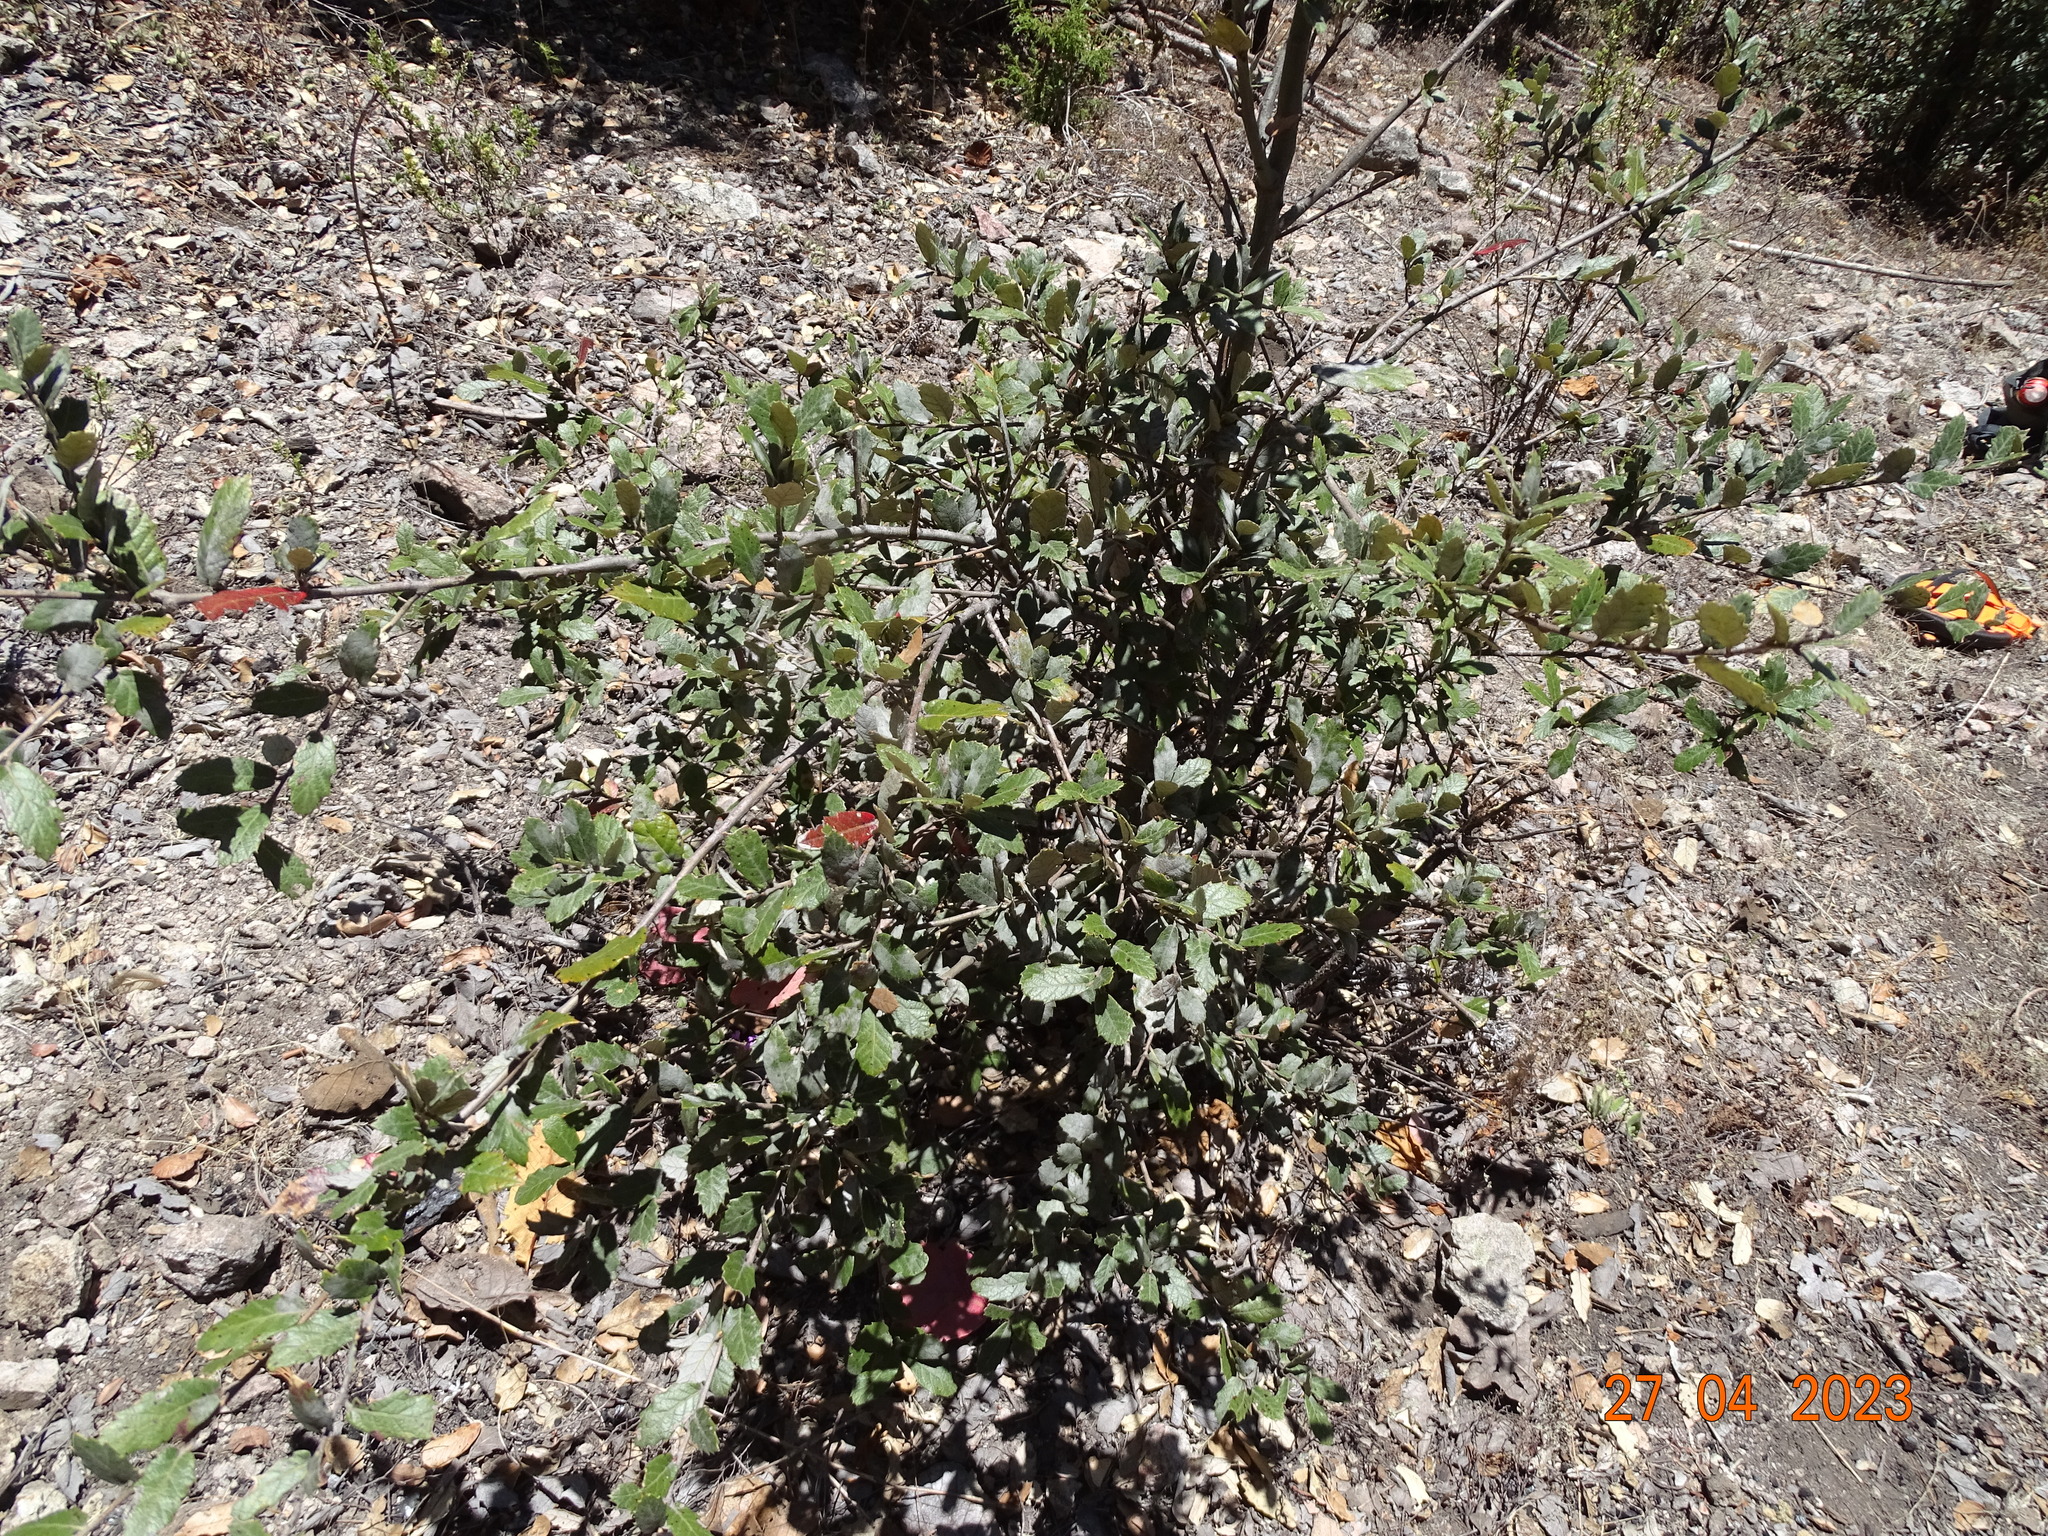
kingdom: Plantae
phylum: Tracheophyta
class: Magnoliopsida
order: Fagales
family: Fagaceae
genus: Quercus
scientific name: Quercus sideroxyla
